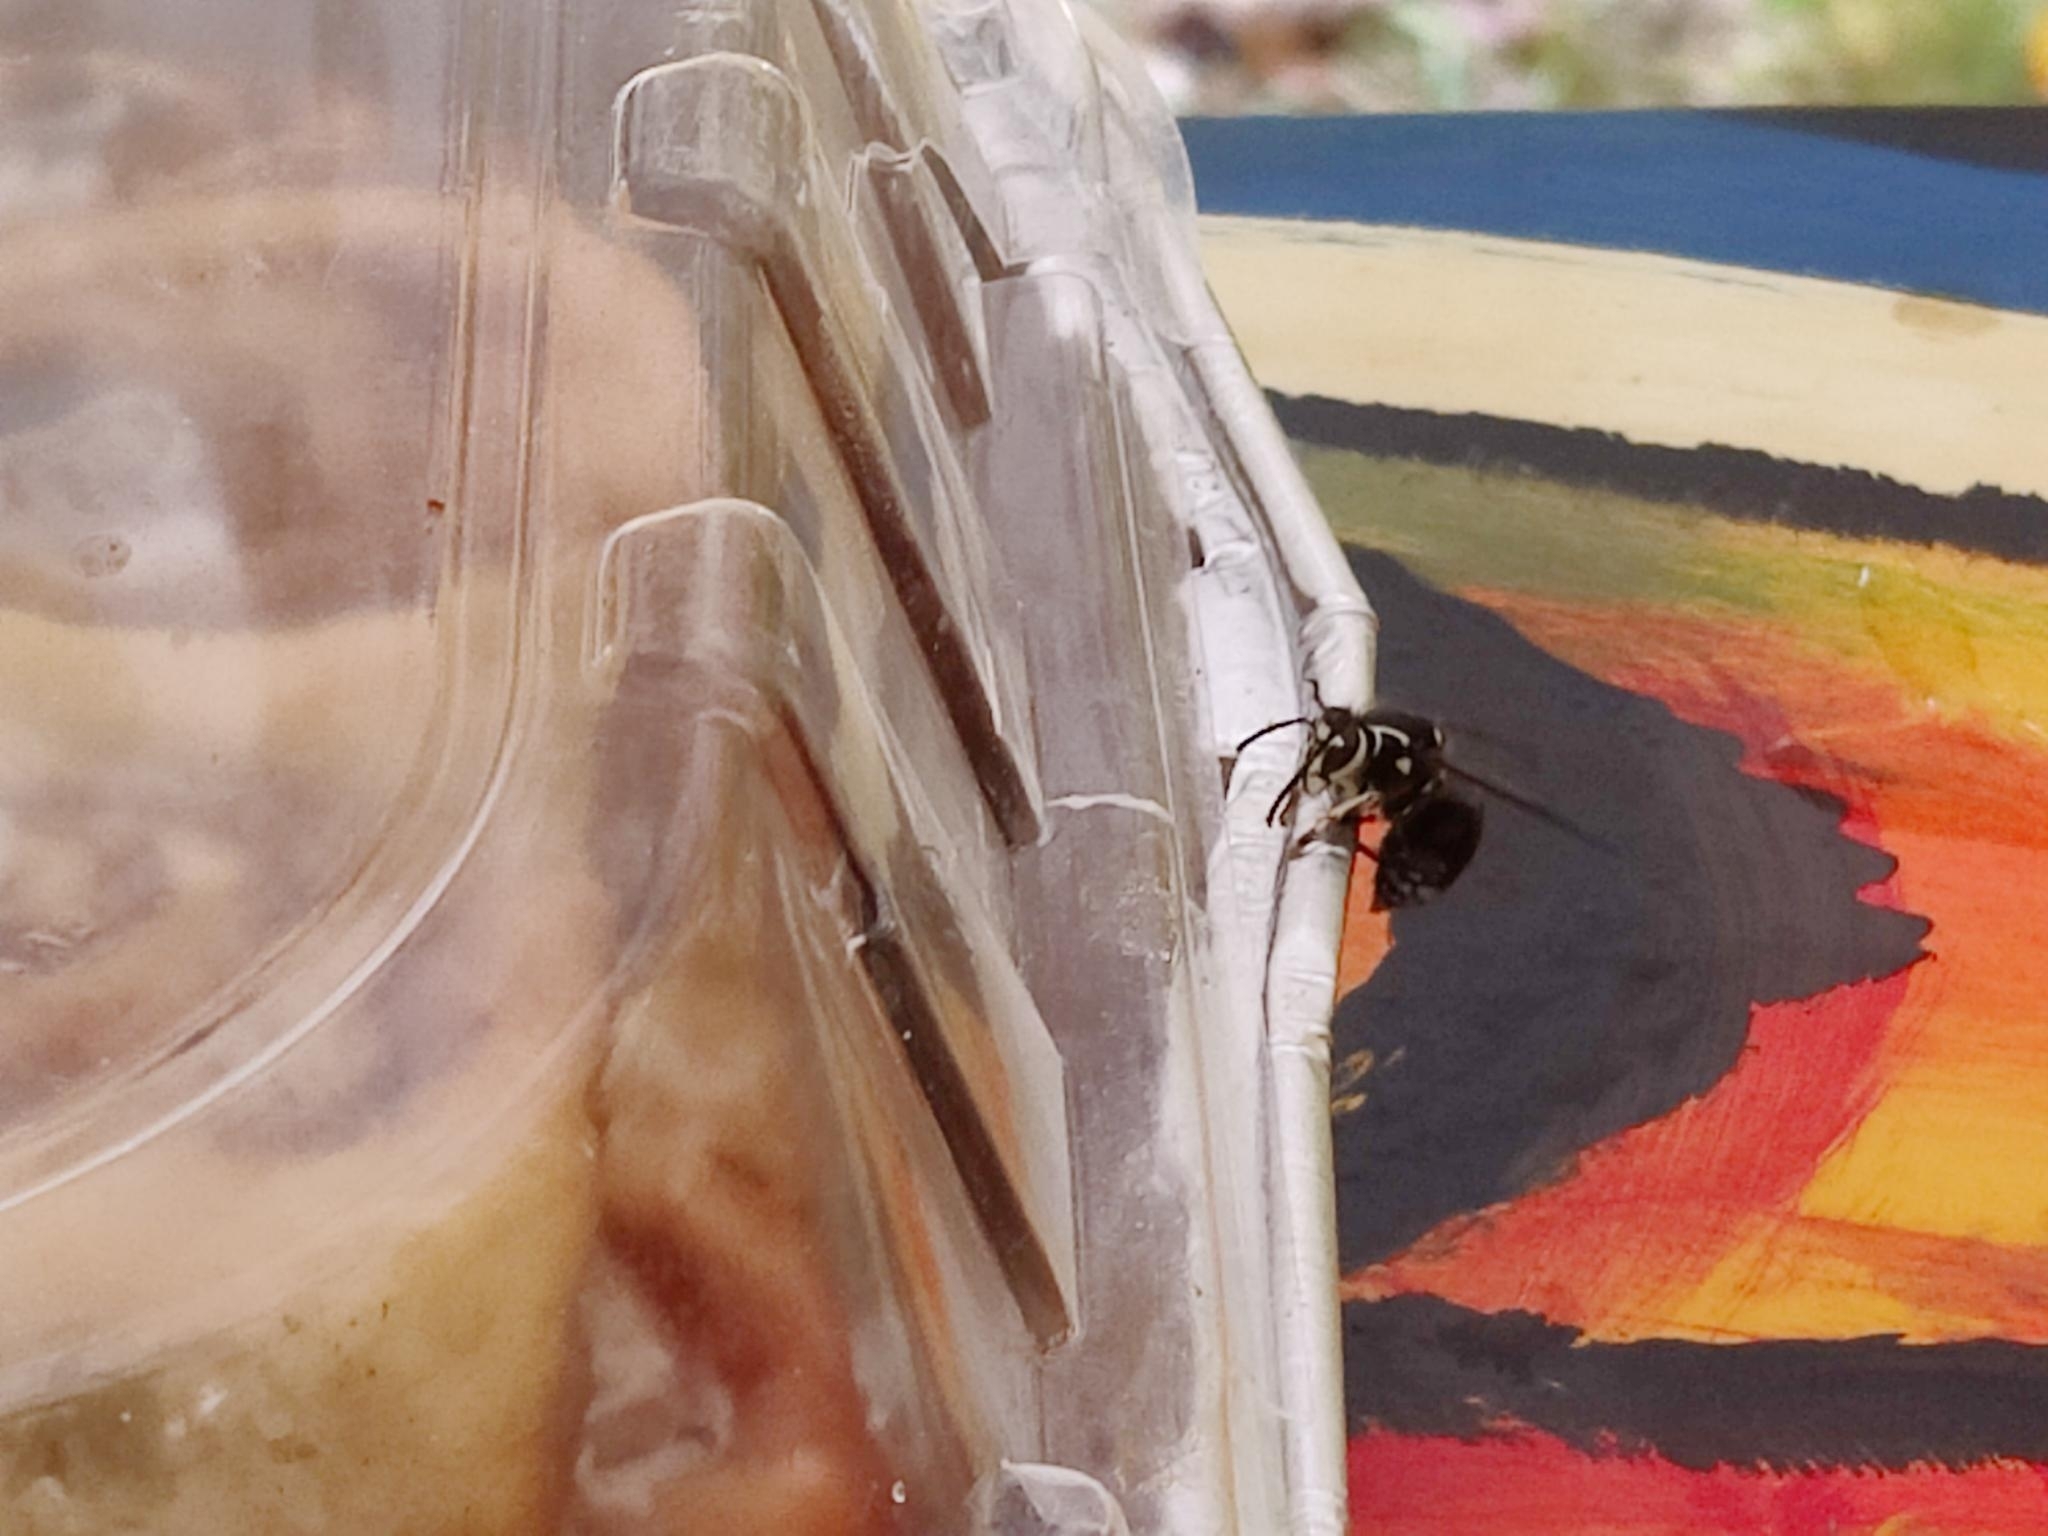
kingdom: Animalia
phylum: Arthropoda
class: Insecta
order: Hymenoptera
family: Vespidae
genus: Dolichovespula
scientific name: Dolichovespula maculata
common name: Bald-faced hornet
